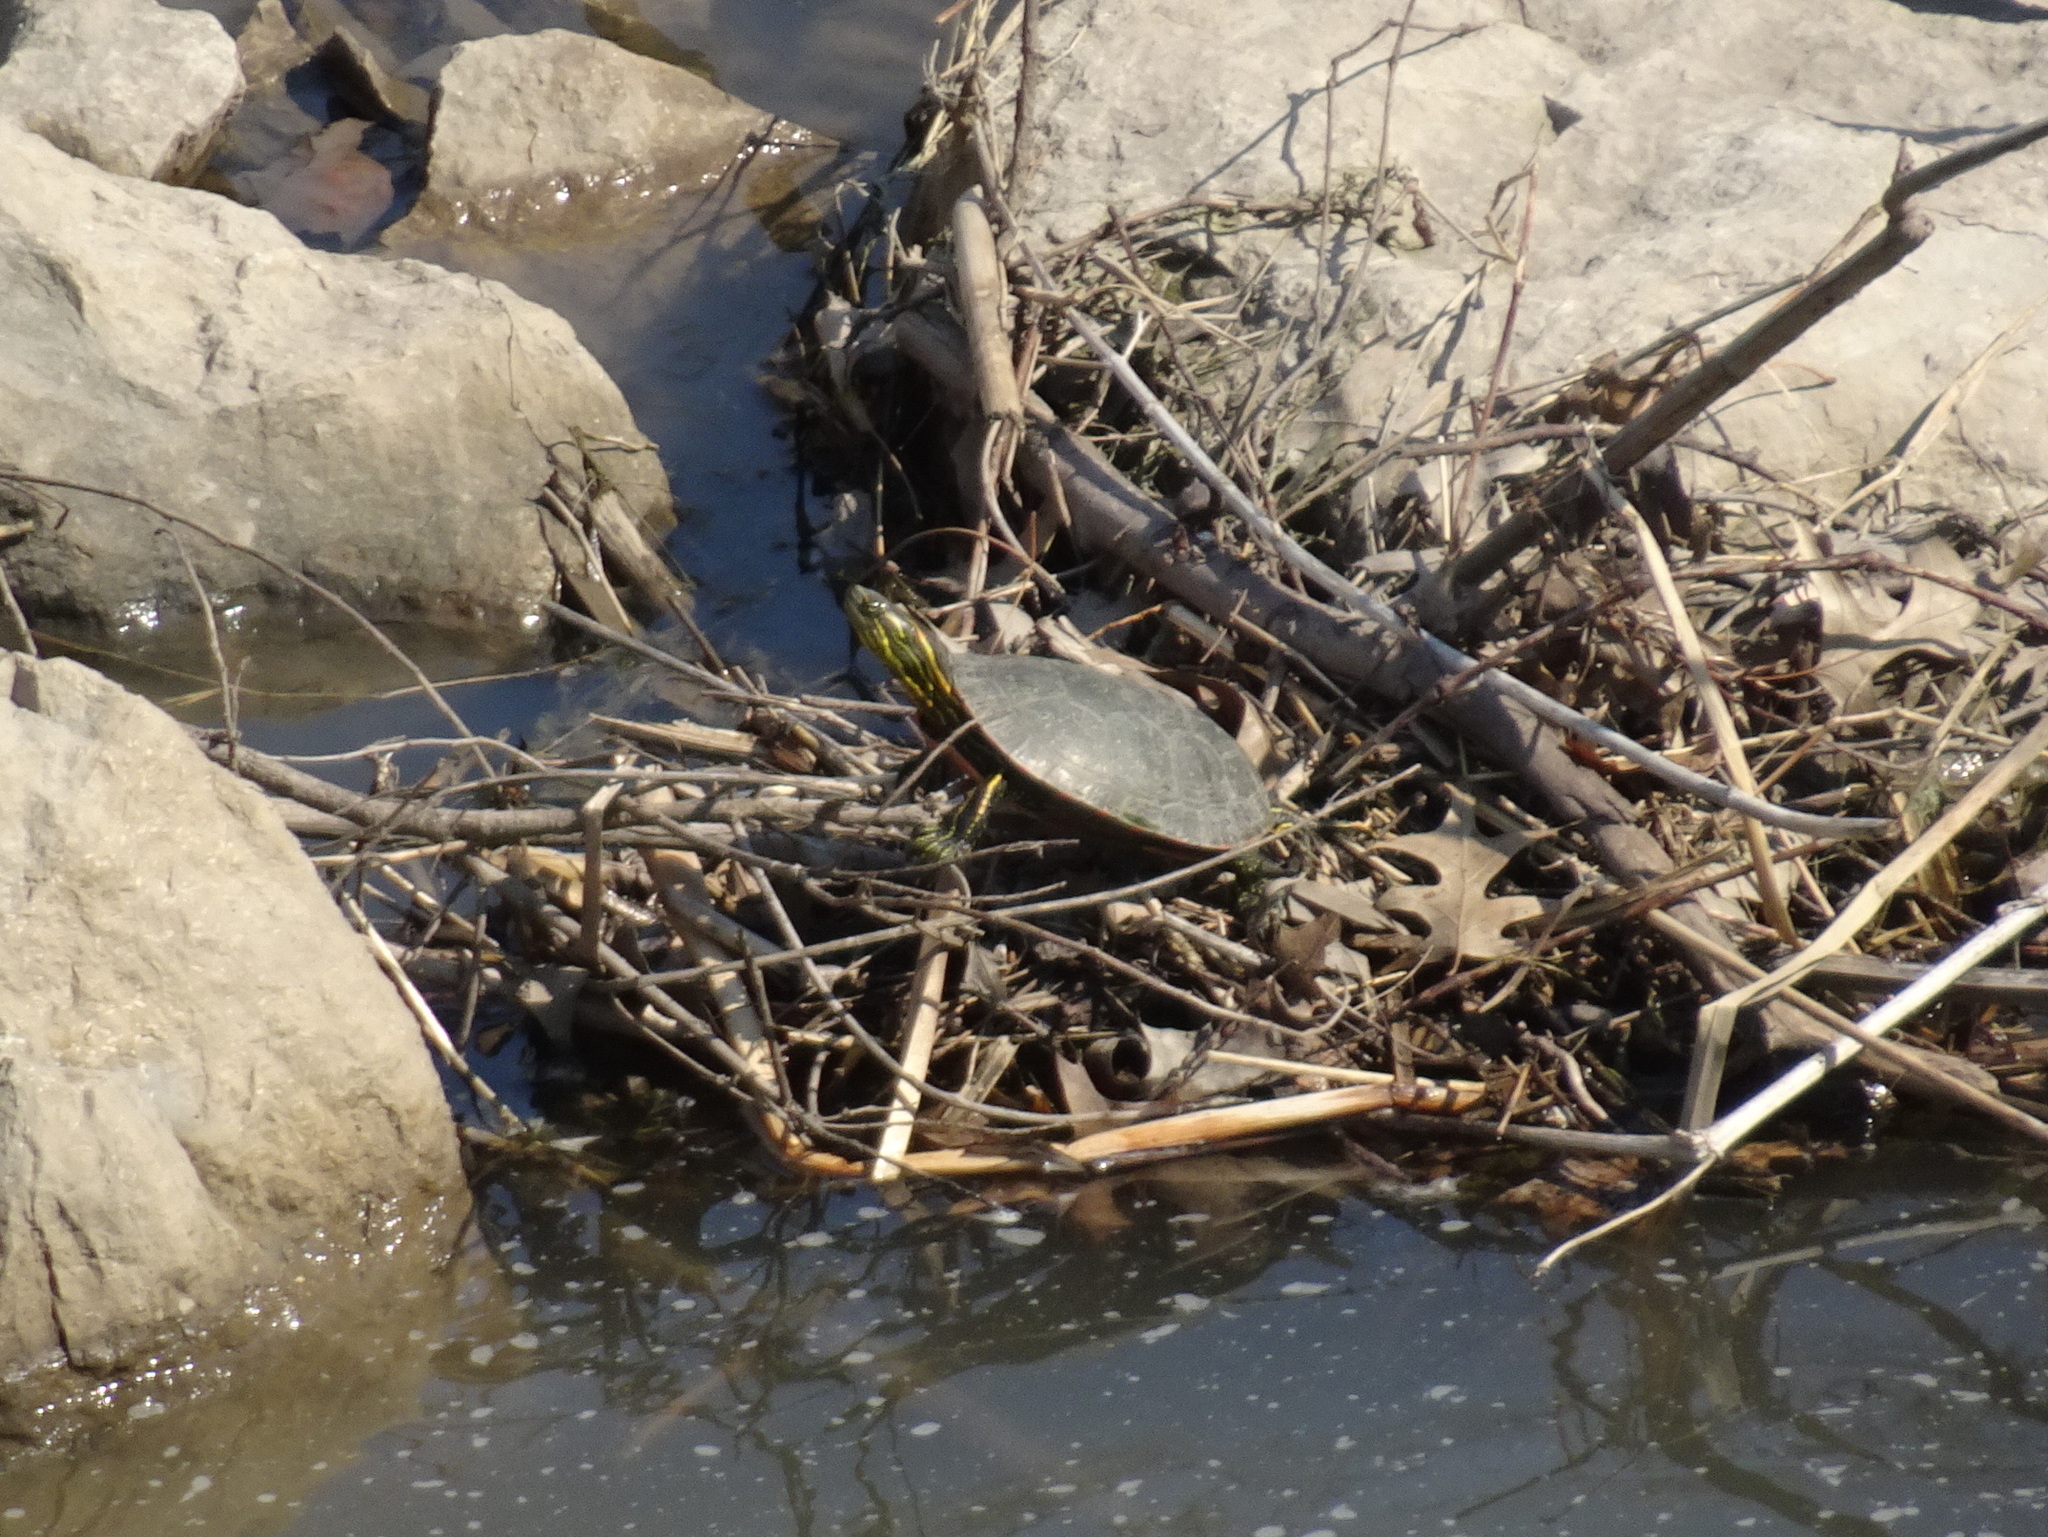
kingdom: Animalia
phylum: Chordata
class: Testudines
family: Emydidae
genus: Chrysemys
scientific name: Chrysemys picta
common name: Painted turtle
